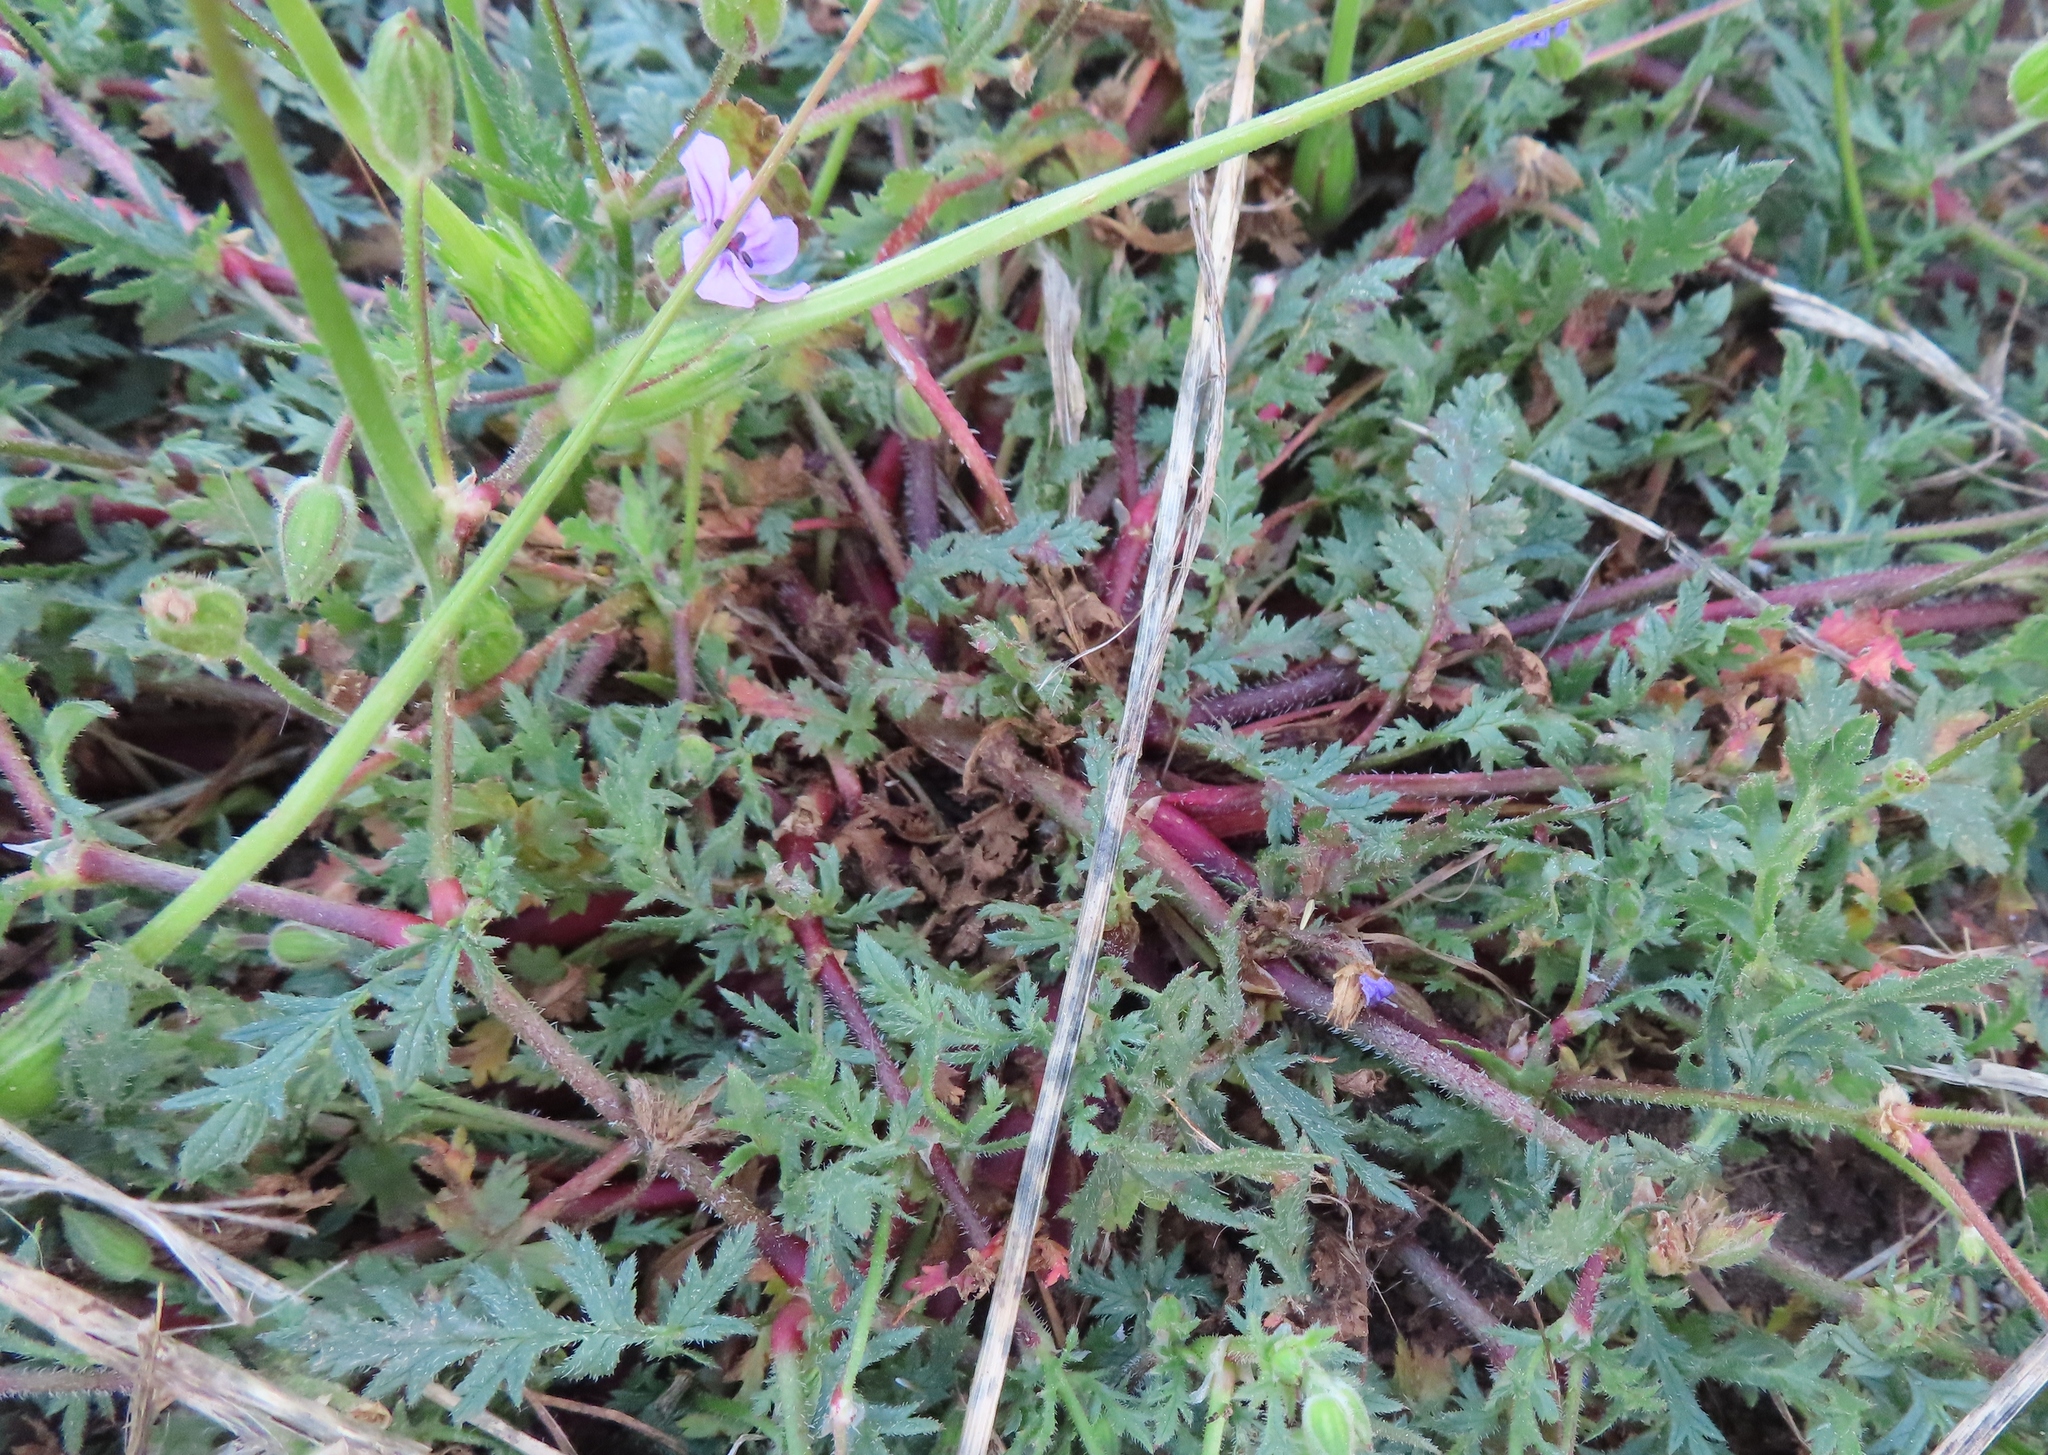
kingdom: Plantae
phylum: Tracheophyta
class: Magnoliopsida
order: Geraniales
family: Geraniaceae
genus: Erodium
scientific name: Erodium botrys
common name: Mediterranean stork's-bill
